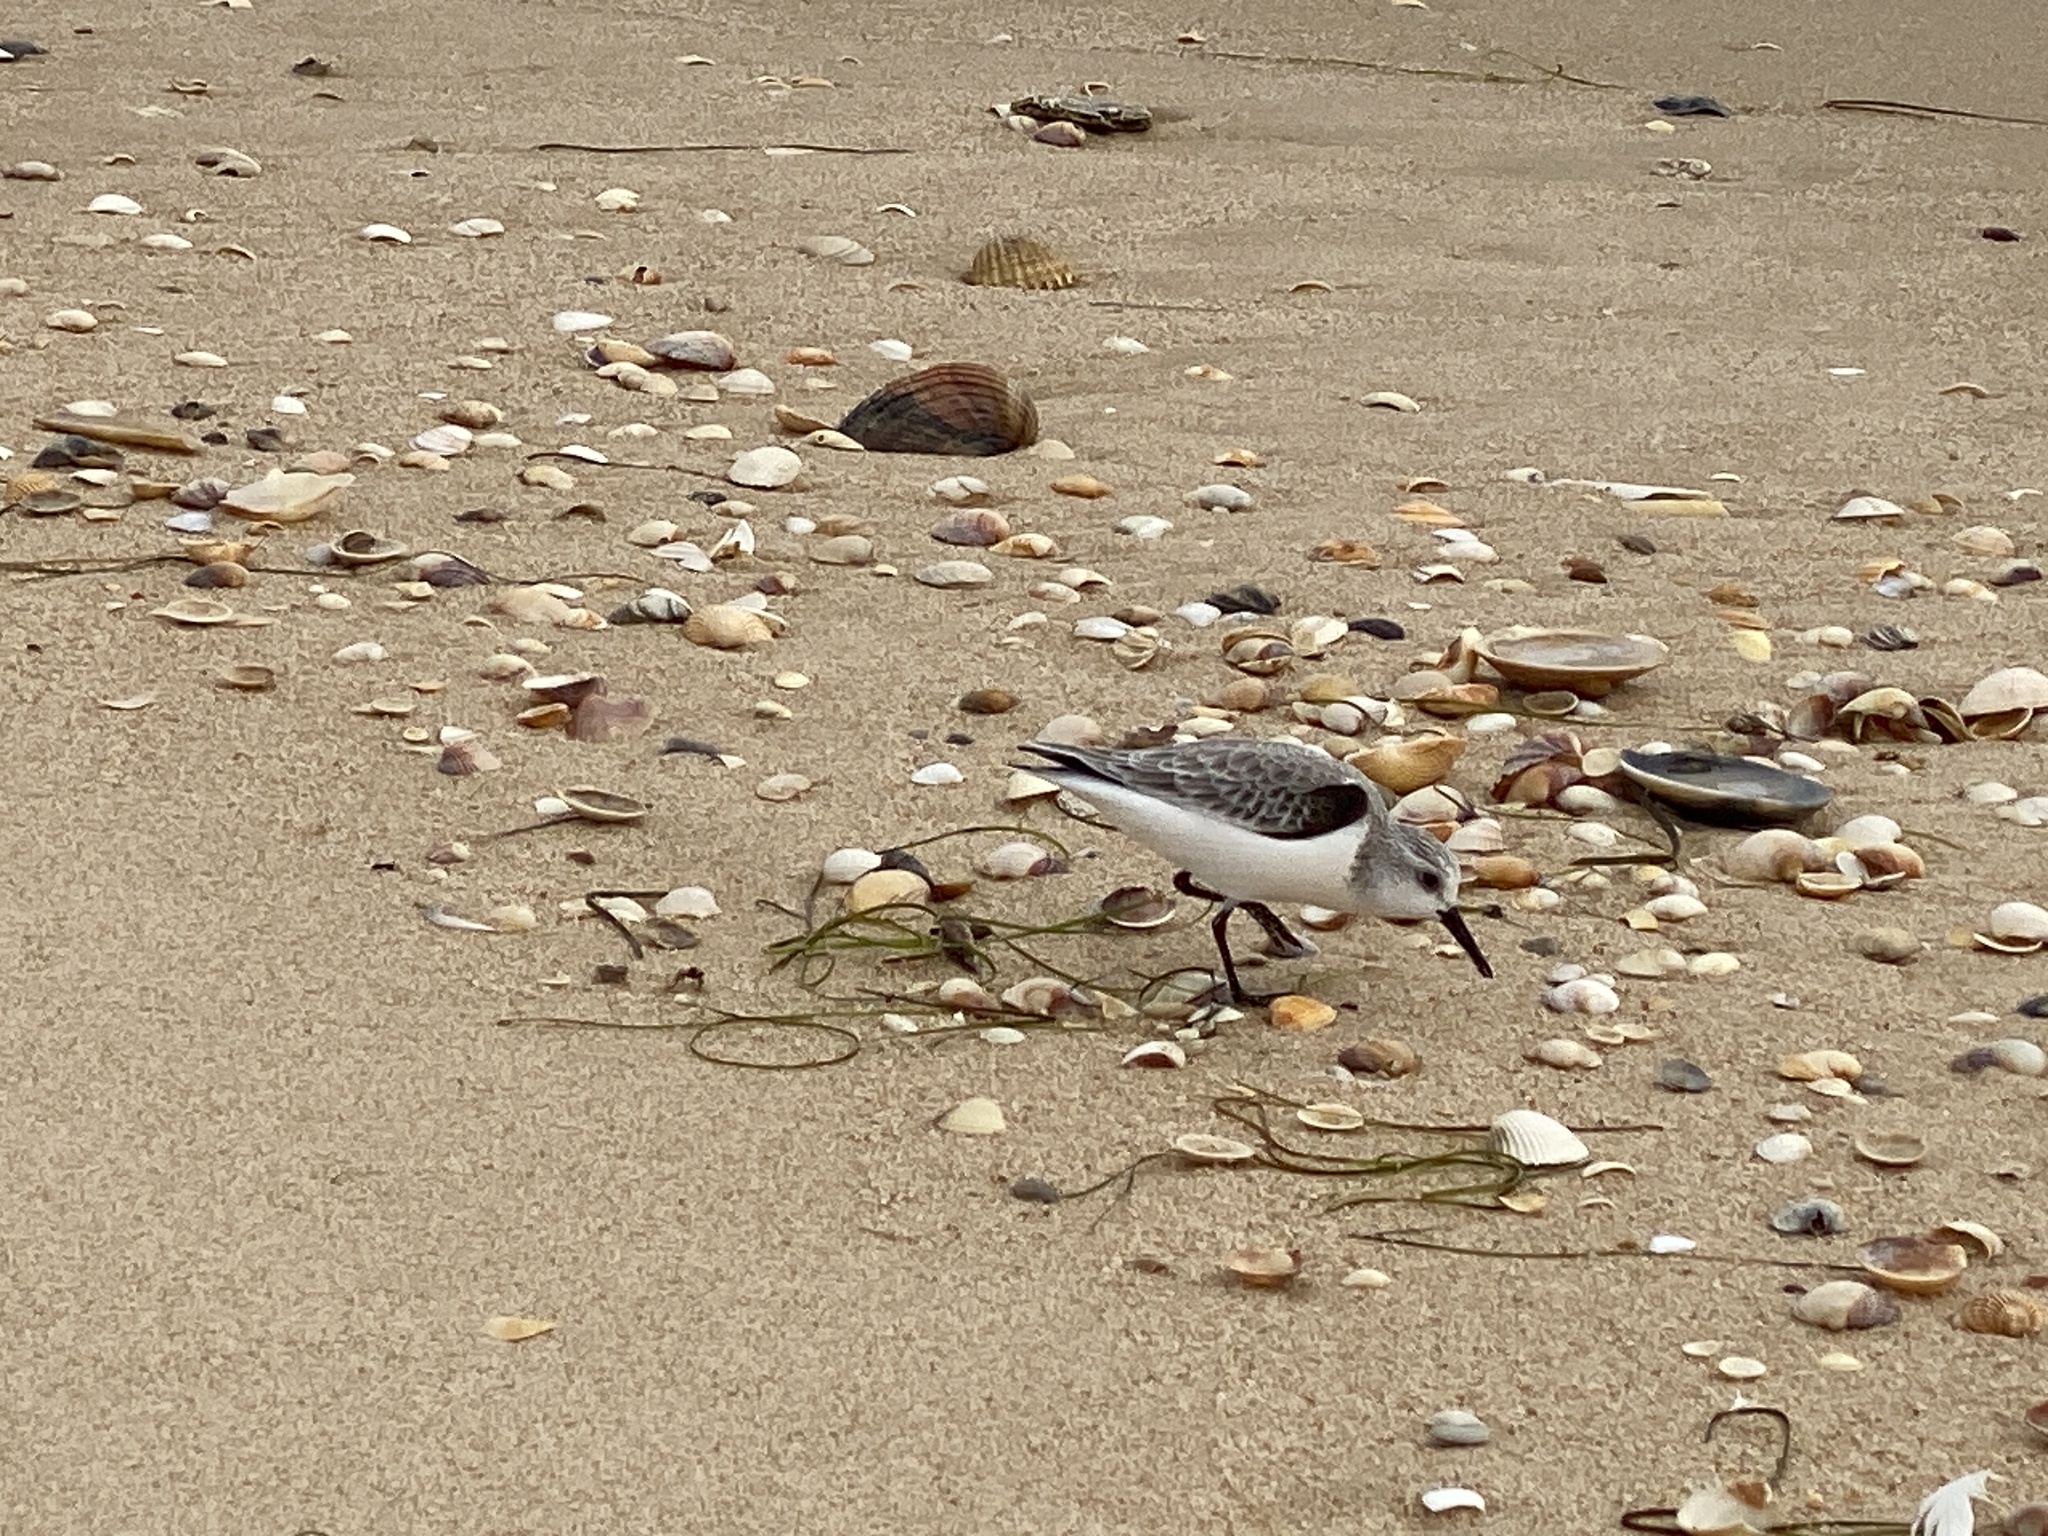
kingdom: Animalia
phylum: Chordata
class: Aves
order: Charadriiformes
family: Scolopacidae
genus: Calidris
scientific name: Calidris alba
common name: Sanderling
